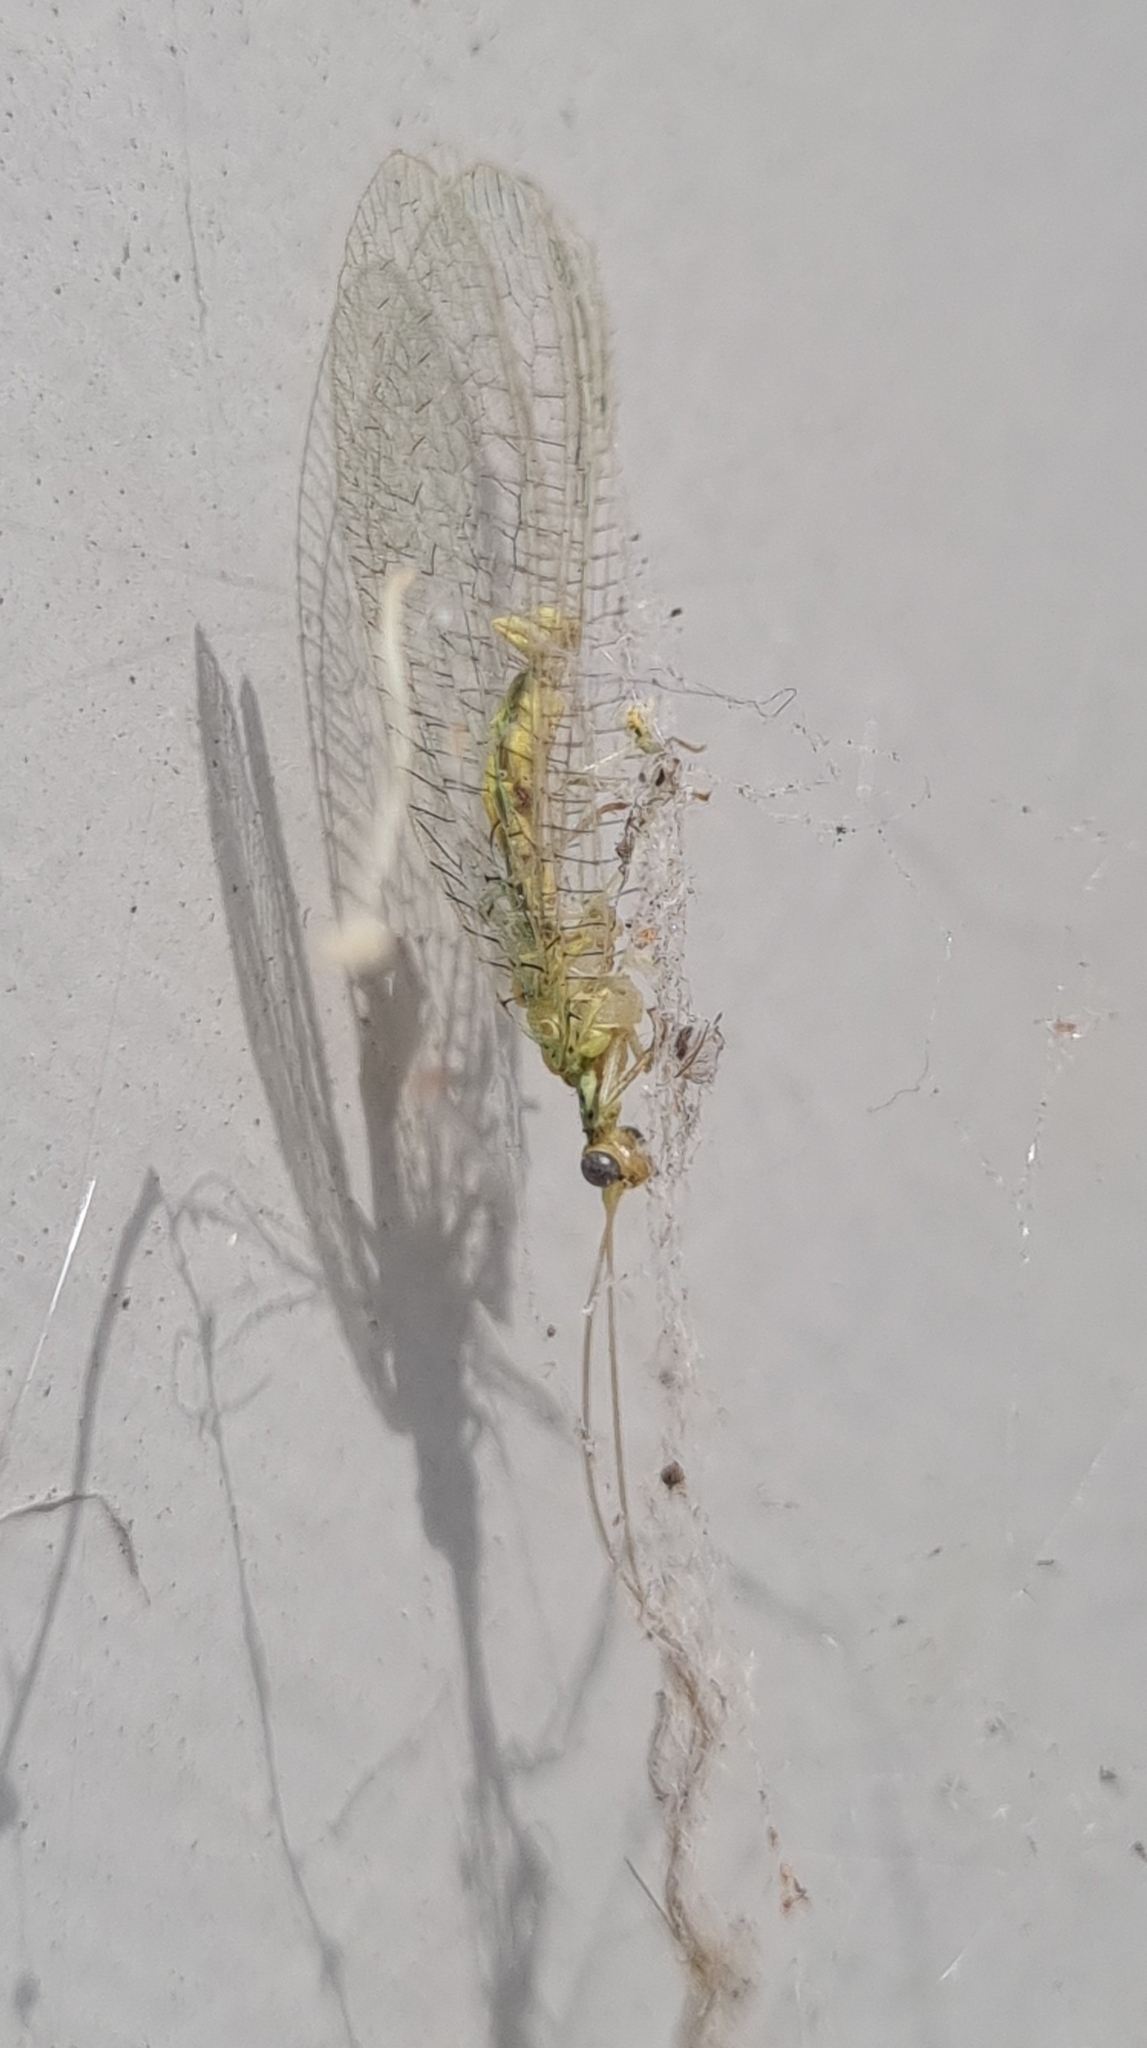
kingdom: Animalia
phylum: Arthropoda
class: Insecta
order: Neuroptera
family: Chrysopidae
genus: Dictyochrysa
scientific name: Dictyochrysa peterseni
